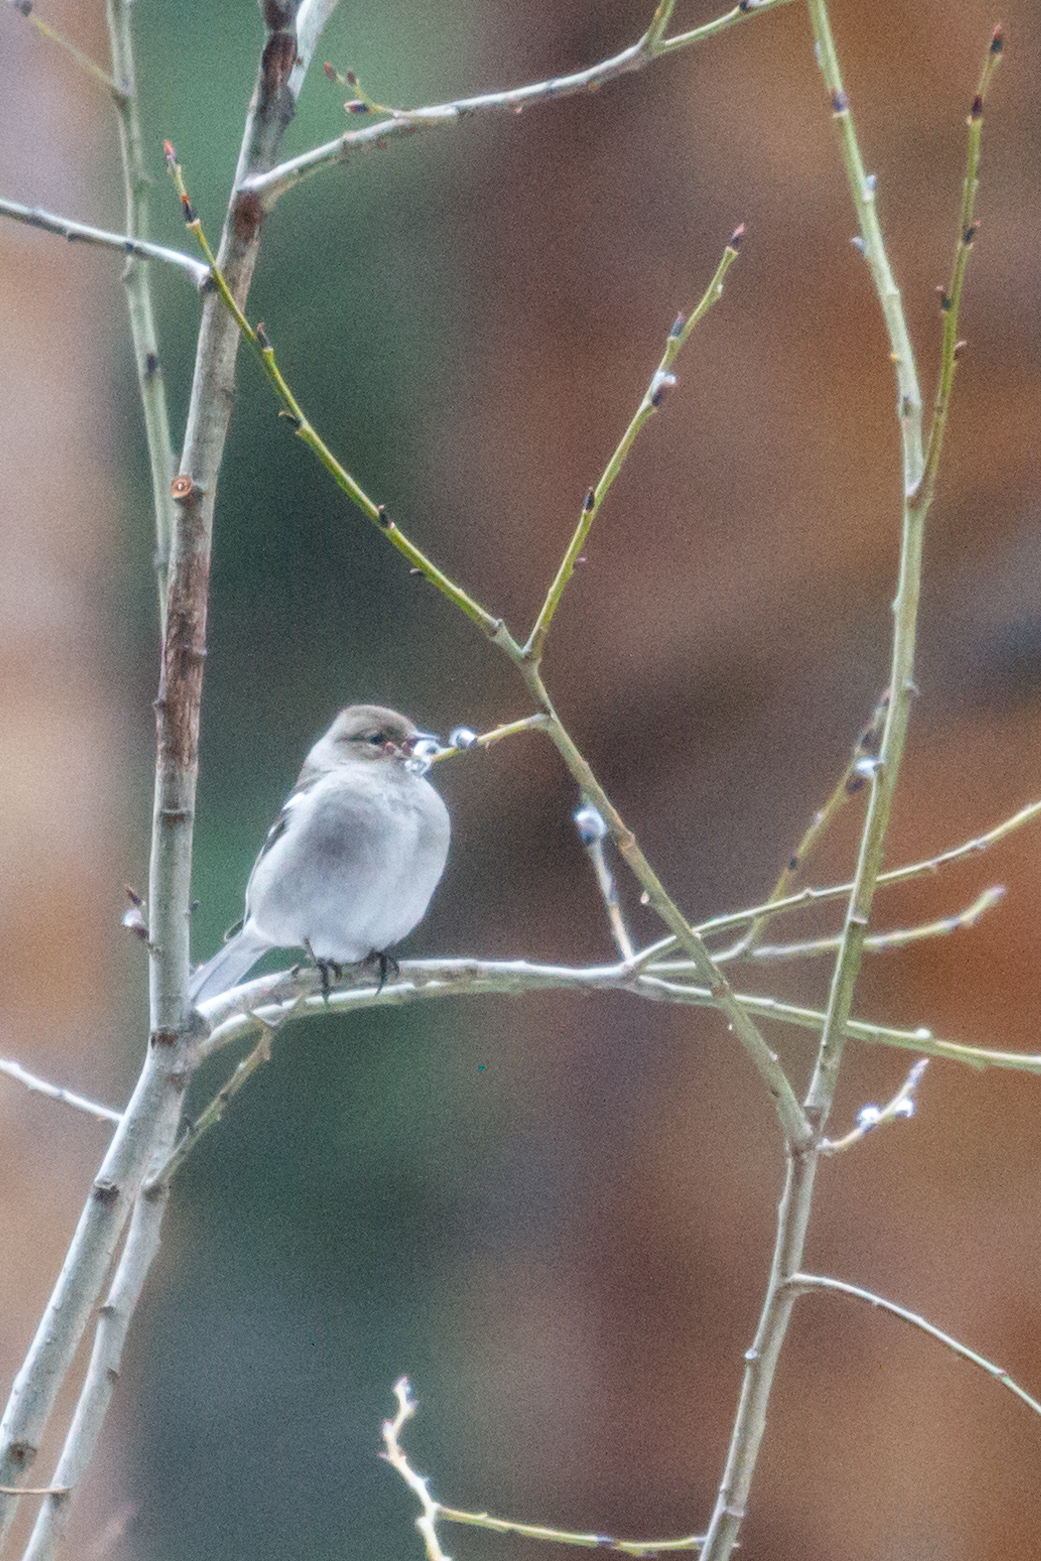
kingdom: Animalia
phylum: Chordata
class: Aves
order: Passeriformes
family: Fringillidae
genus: Fringilla
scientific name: Fringilla coelebs
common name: Common chaffinch
